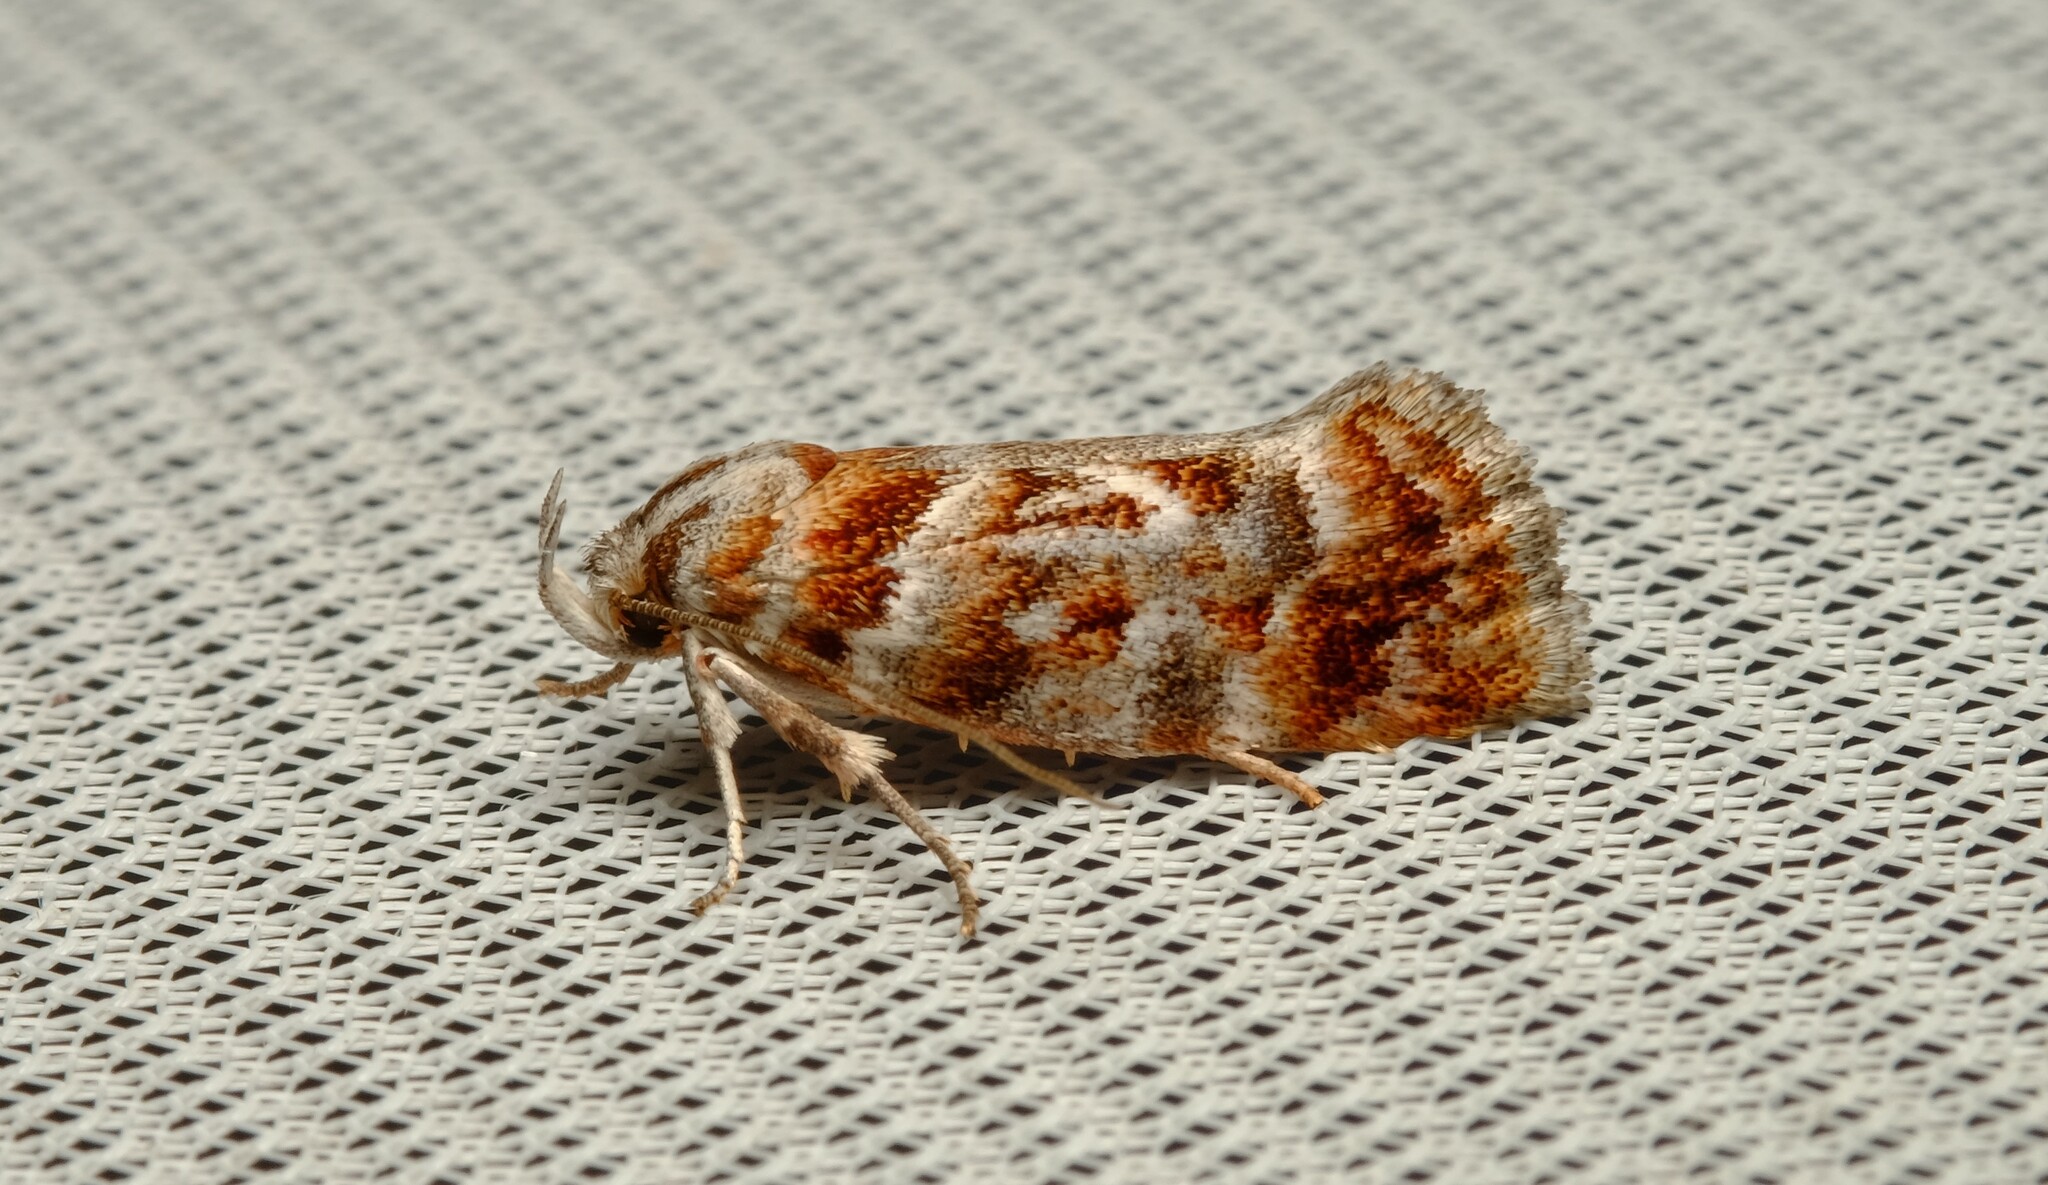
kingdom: Animalia
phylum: Arthropoda
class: Insecta
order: Lepidoptera
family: Oecophoridae
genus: Acmotoma
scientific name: Acmotoma magniferella
